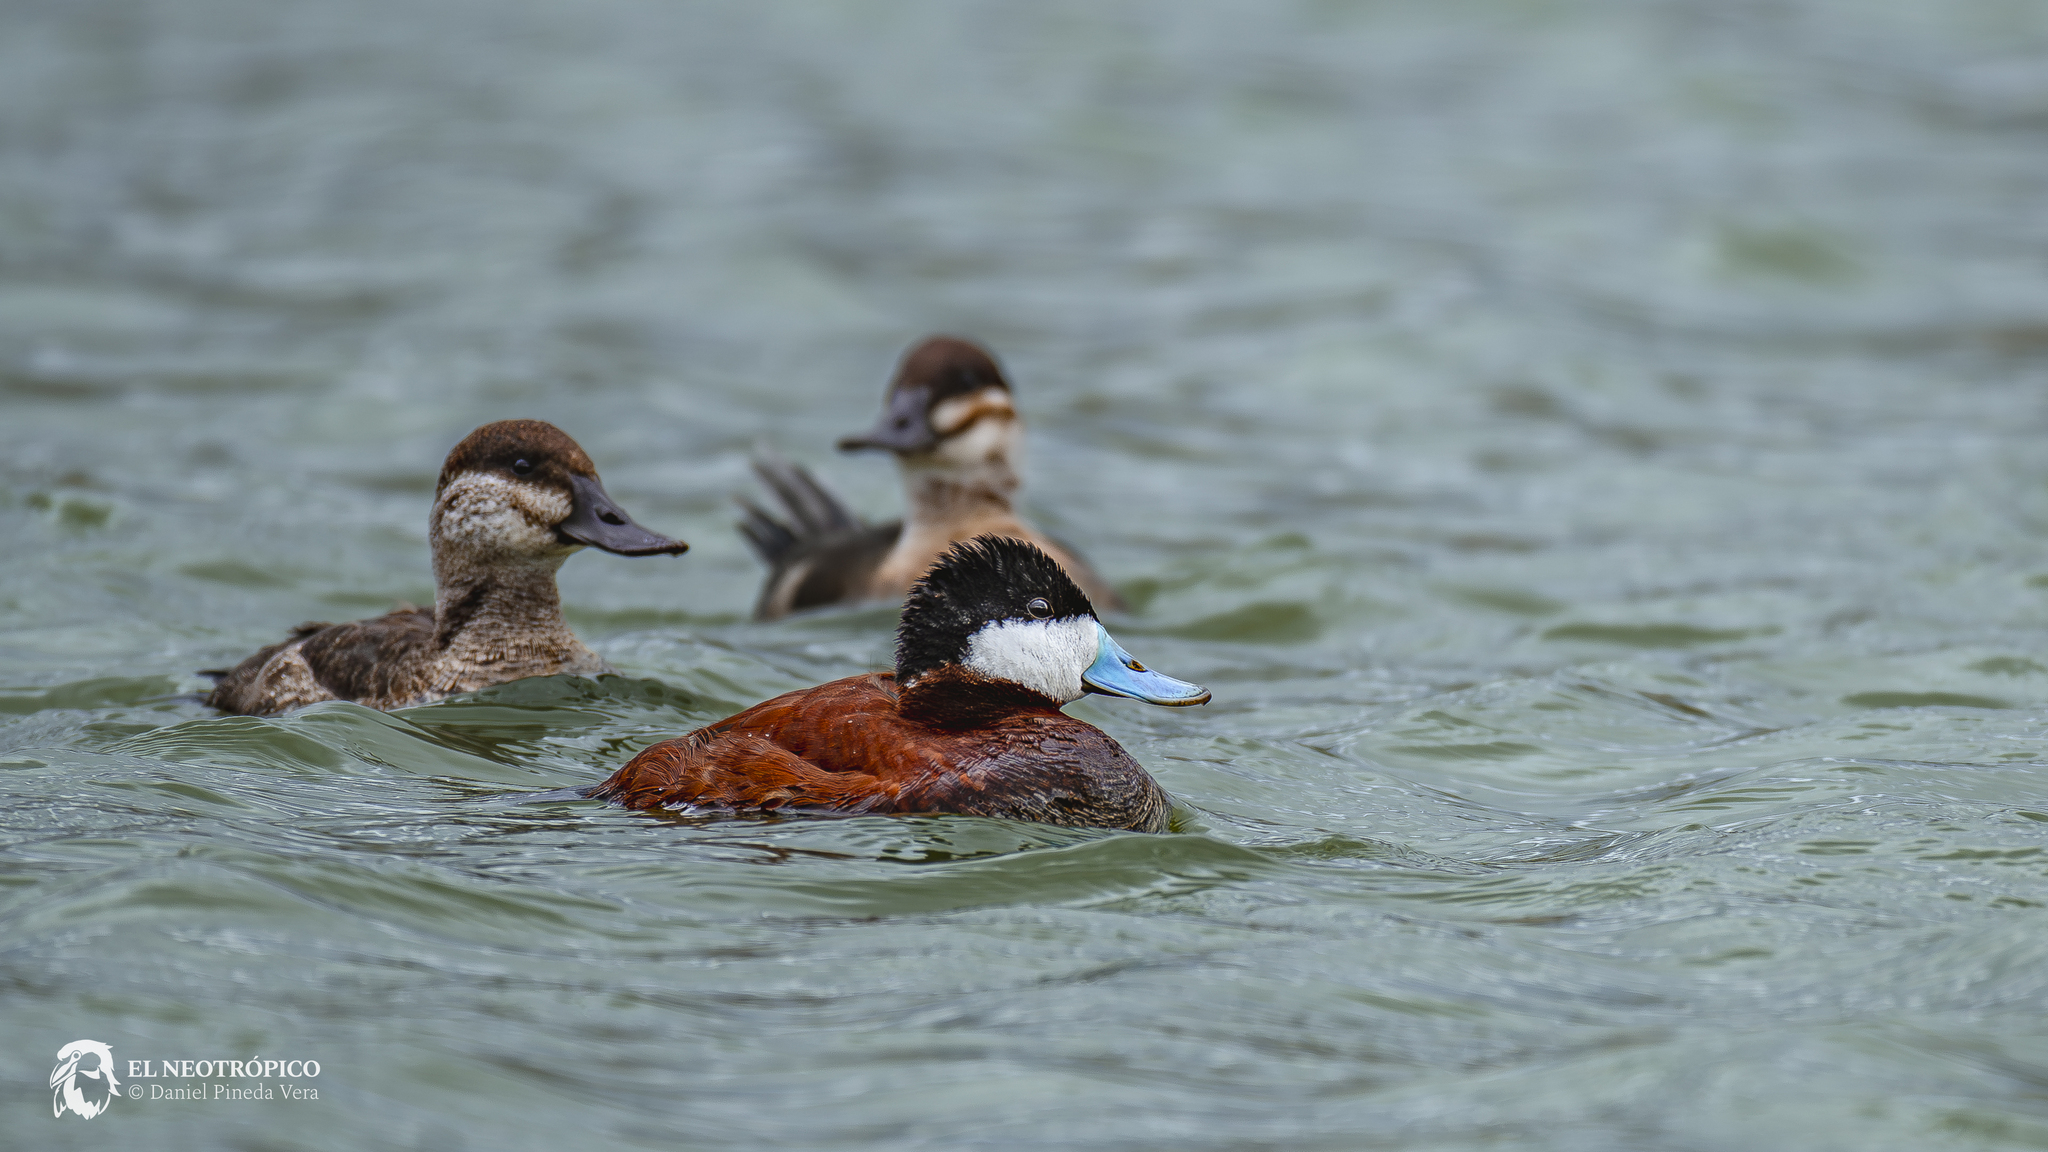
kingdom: Animalia
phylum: Chordata
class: Aves
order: Anseriformes
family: Anatidae
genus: Oxyura
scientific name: Oxyura jamaicensis
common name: Ruddy duck
